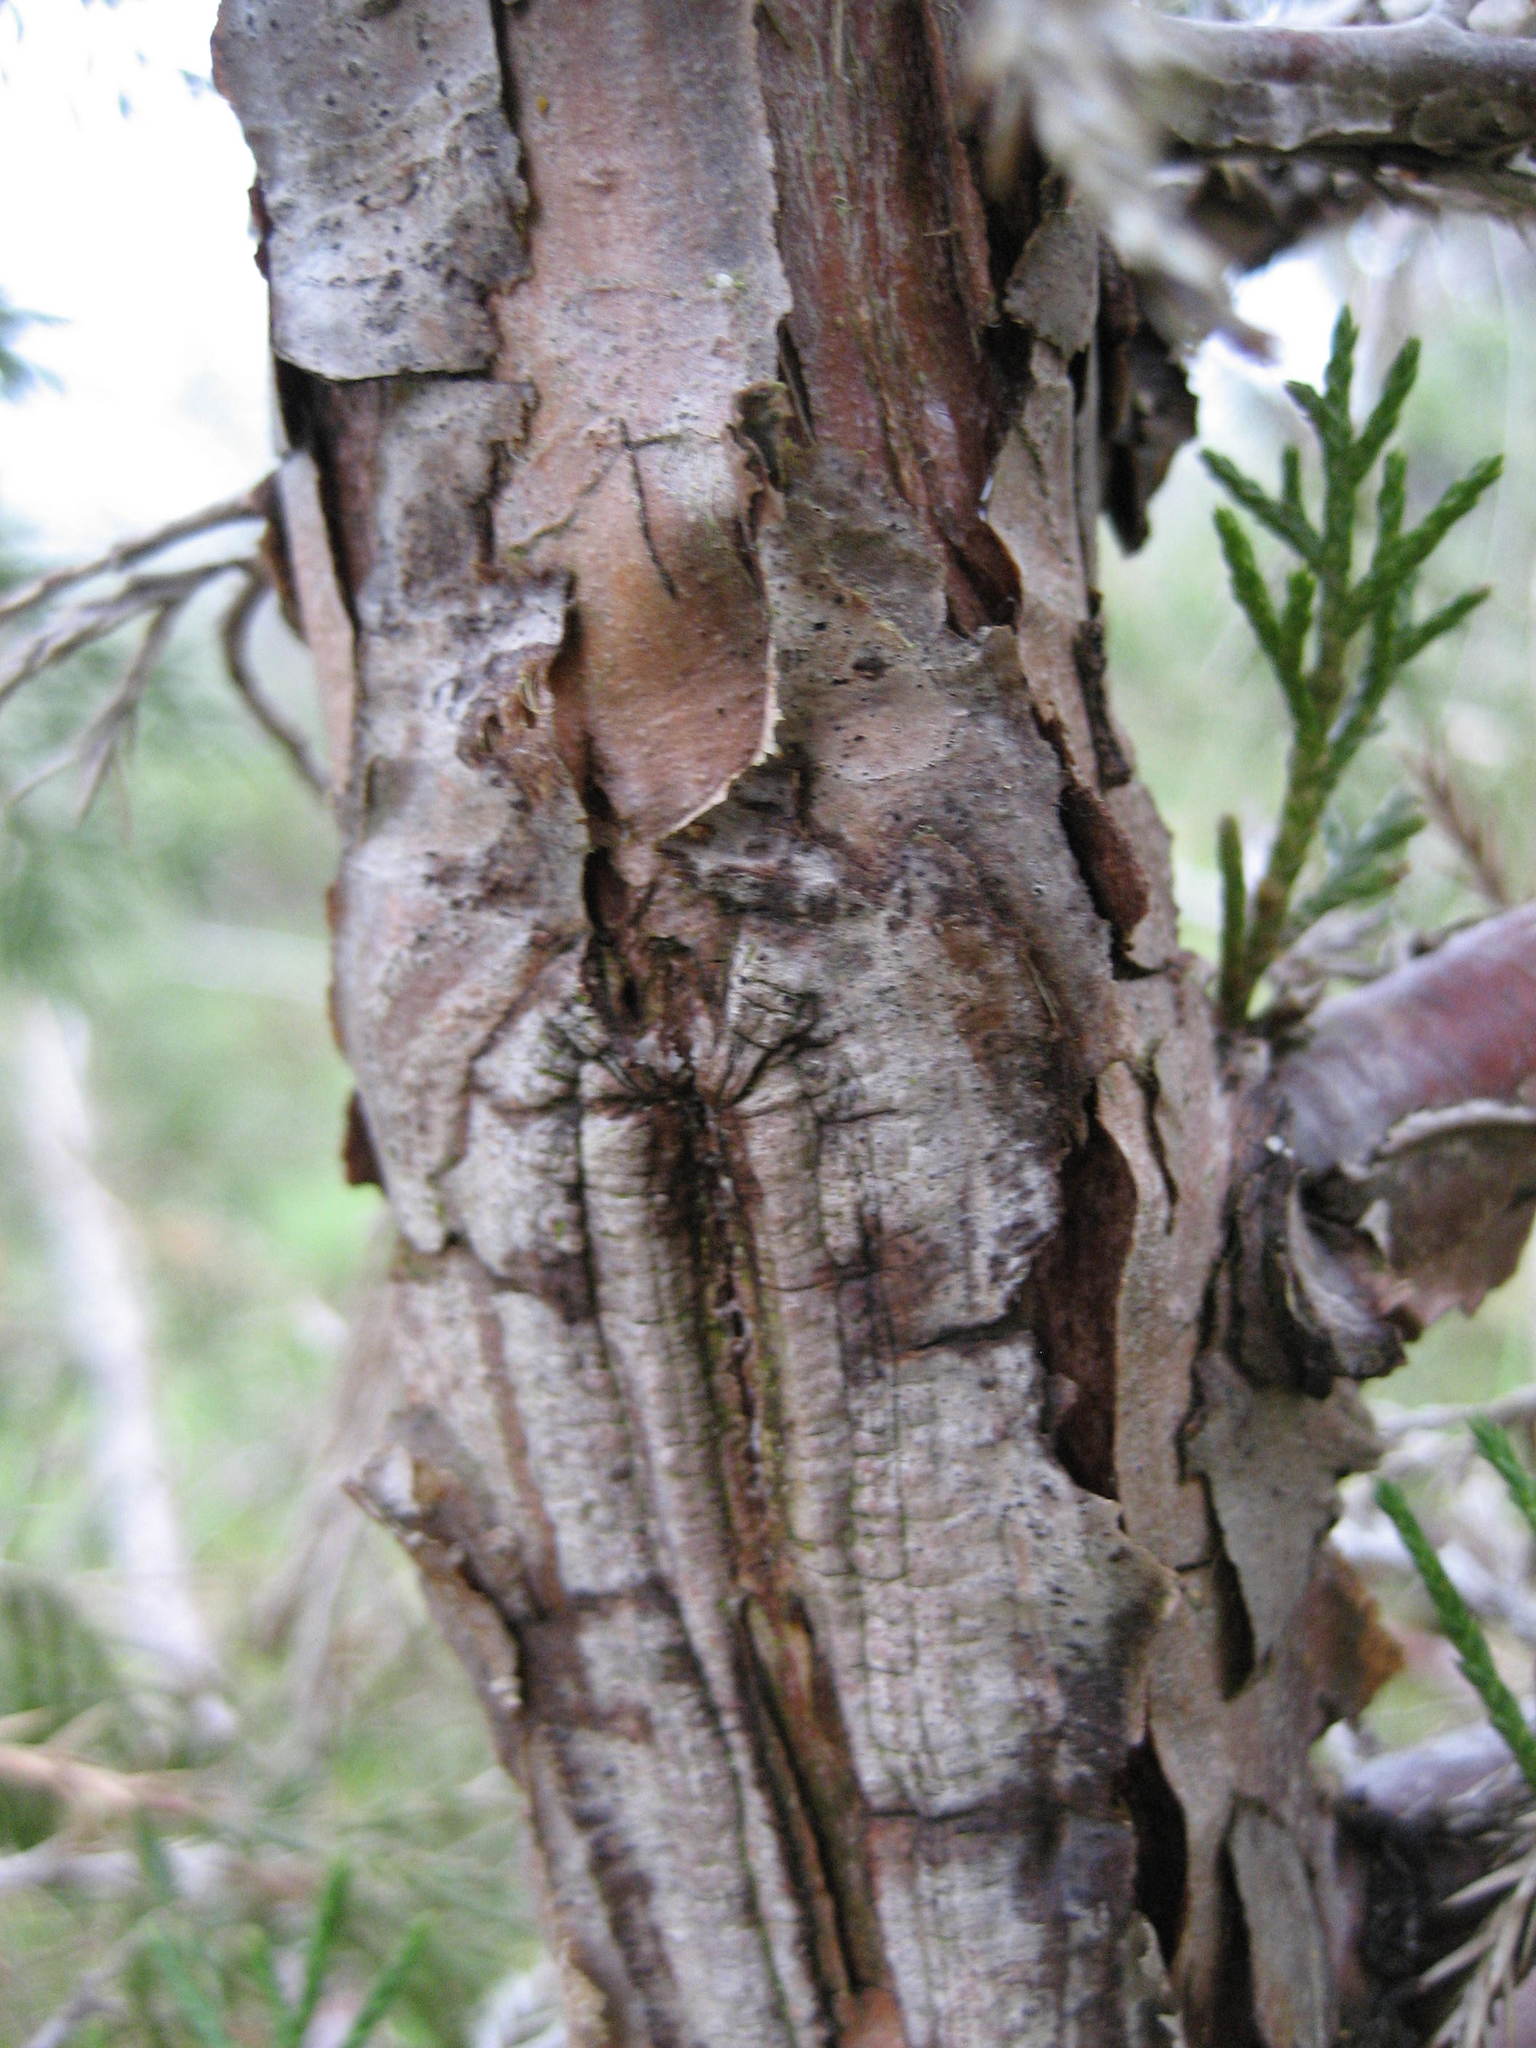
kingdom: Plantae
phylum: Tracheophyta
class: Pinopsida
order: Pinales
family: Cupressaceae
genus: Juniperus
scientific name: Juniperus virginiana
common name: Red juniper
